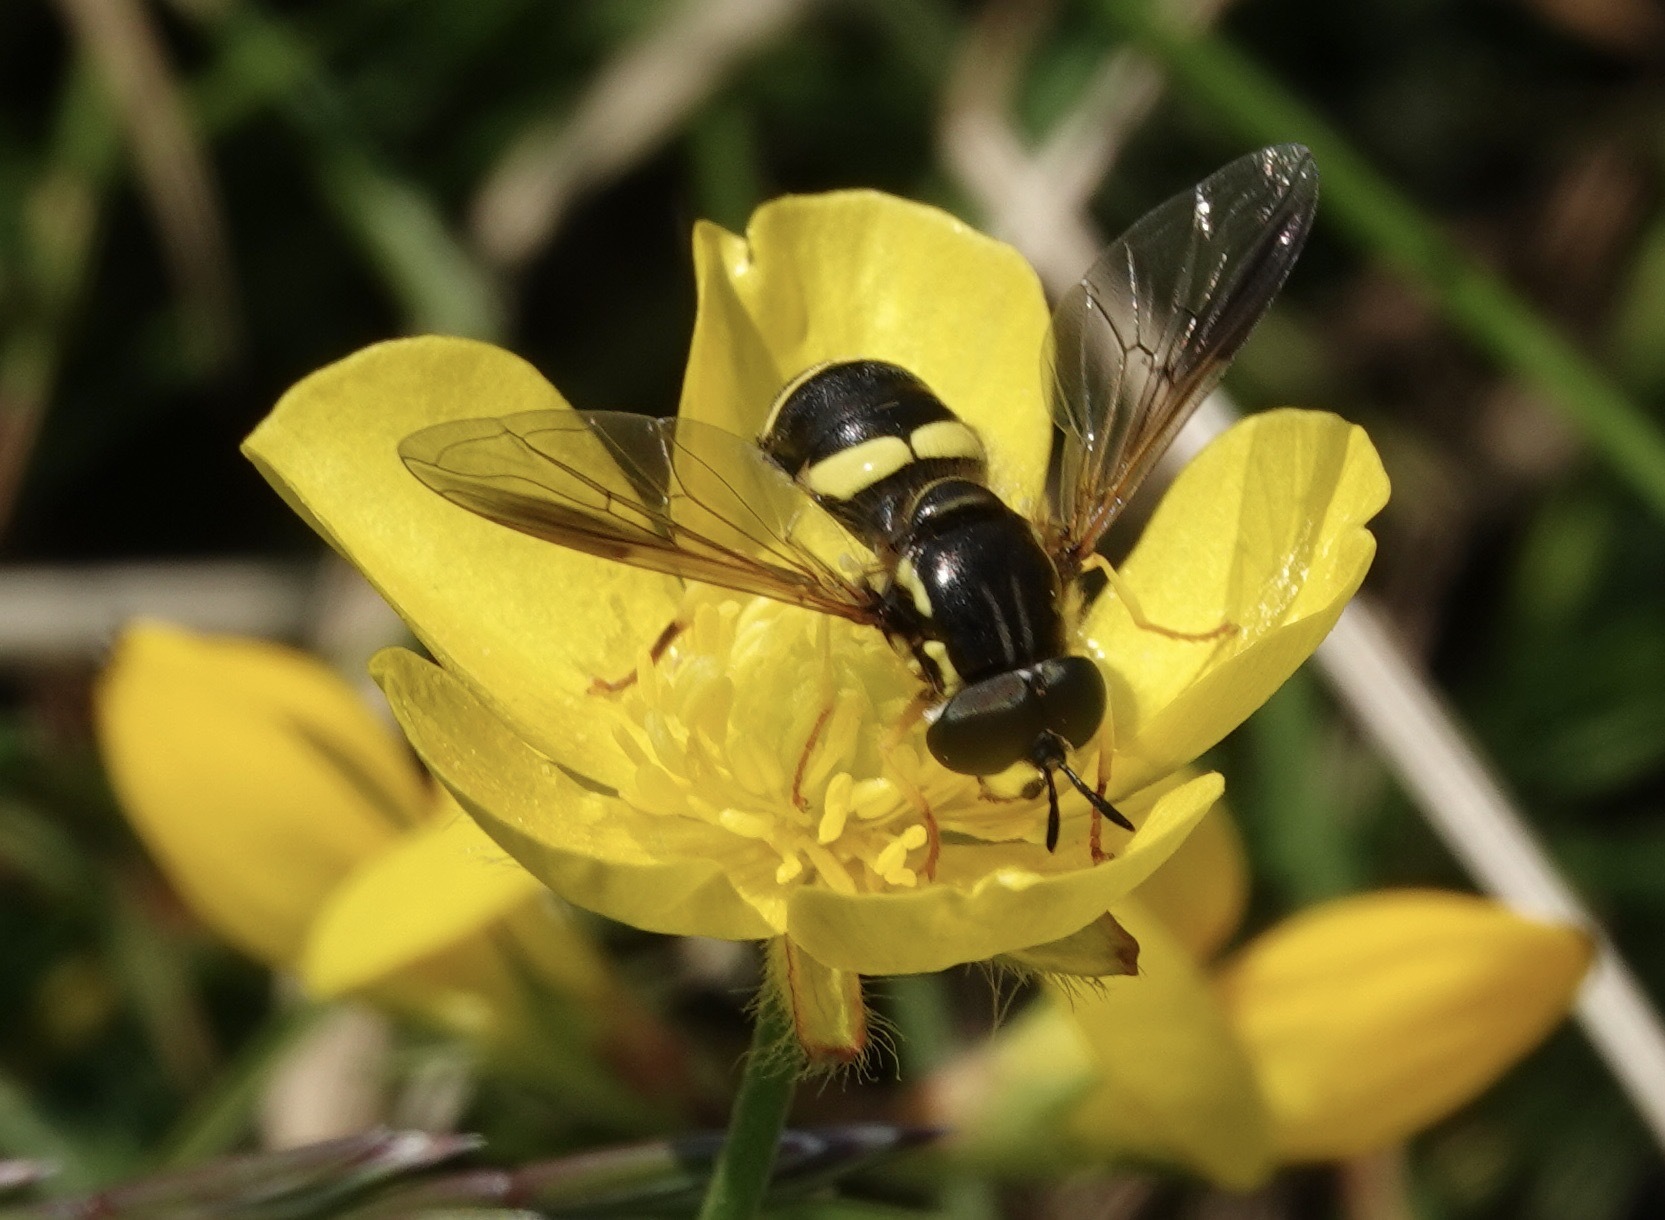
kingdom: Animalia
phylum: Arthropoda
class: Insecta
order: Diptera
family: Syrphidae
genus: Chrysotoxum
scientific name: Chrysotoxum bicincta
